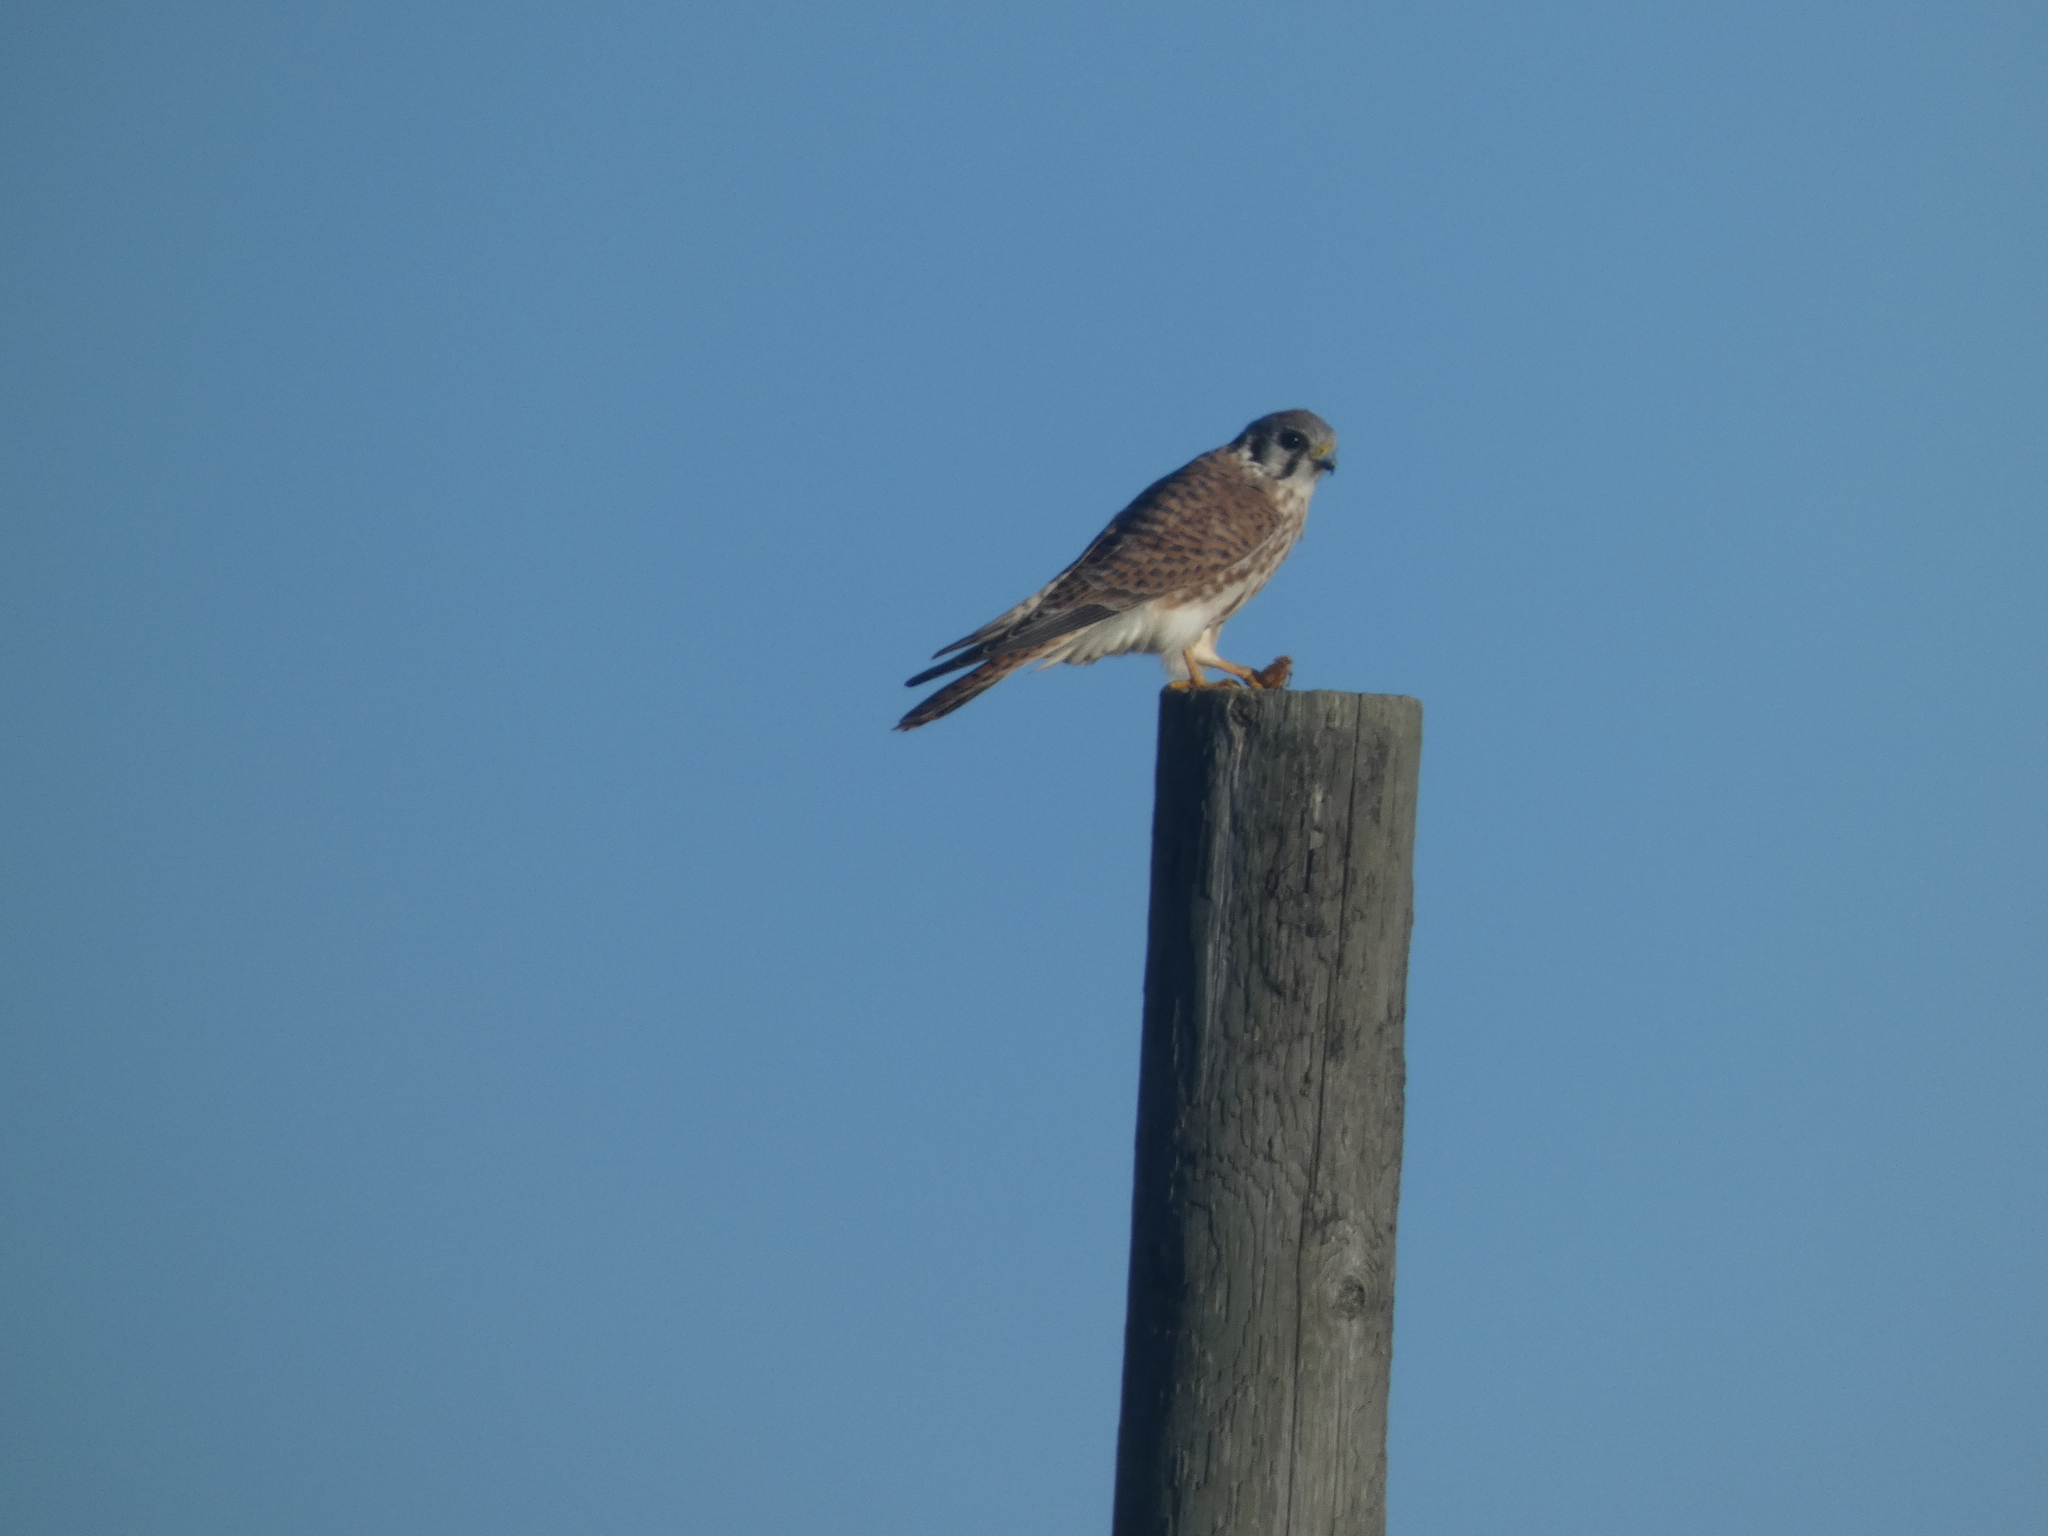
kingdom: Animalia
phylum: Chordata
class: Aves
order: Falconiformes
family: Falconidae
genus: Falco
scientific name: Falco sparverius
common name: American kestrel
